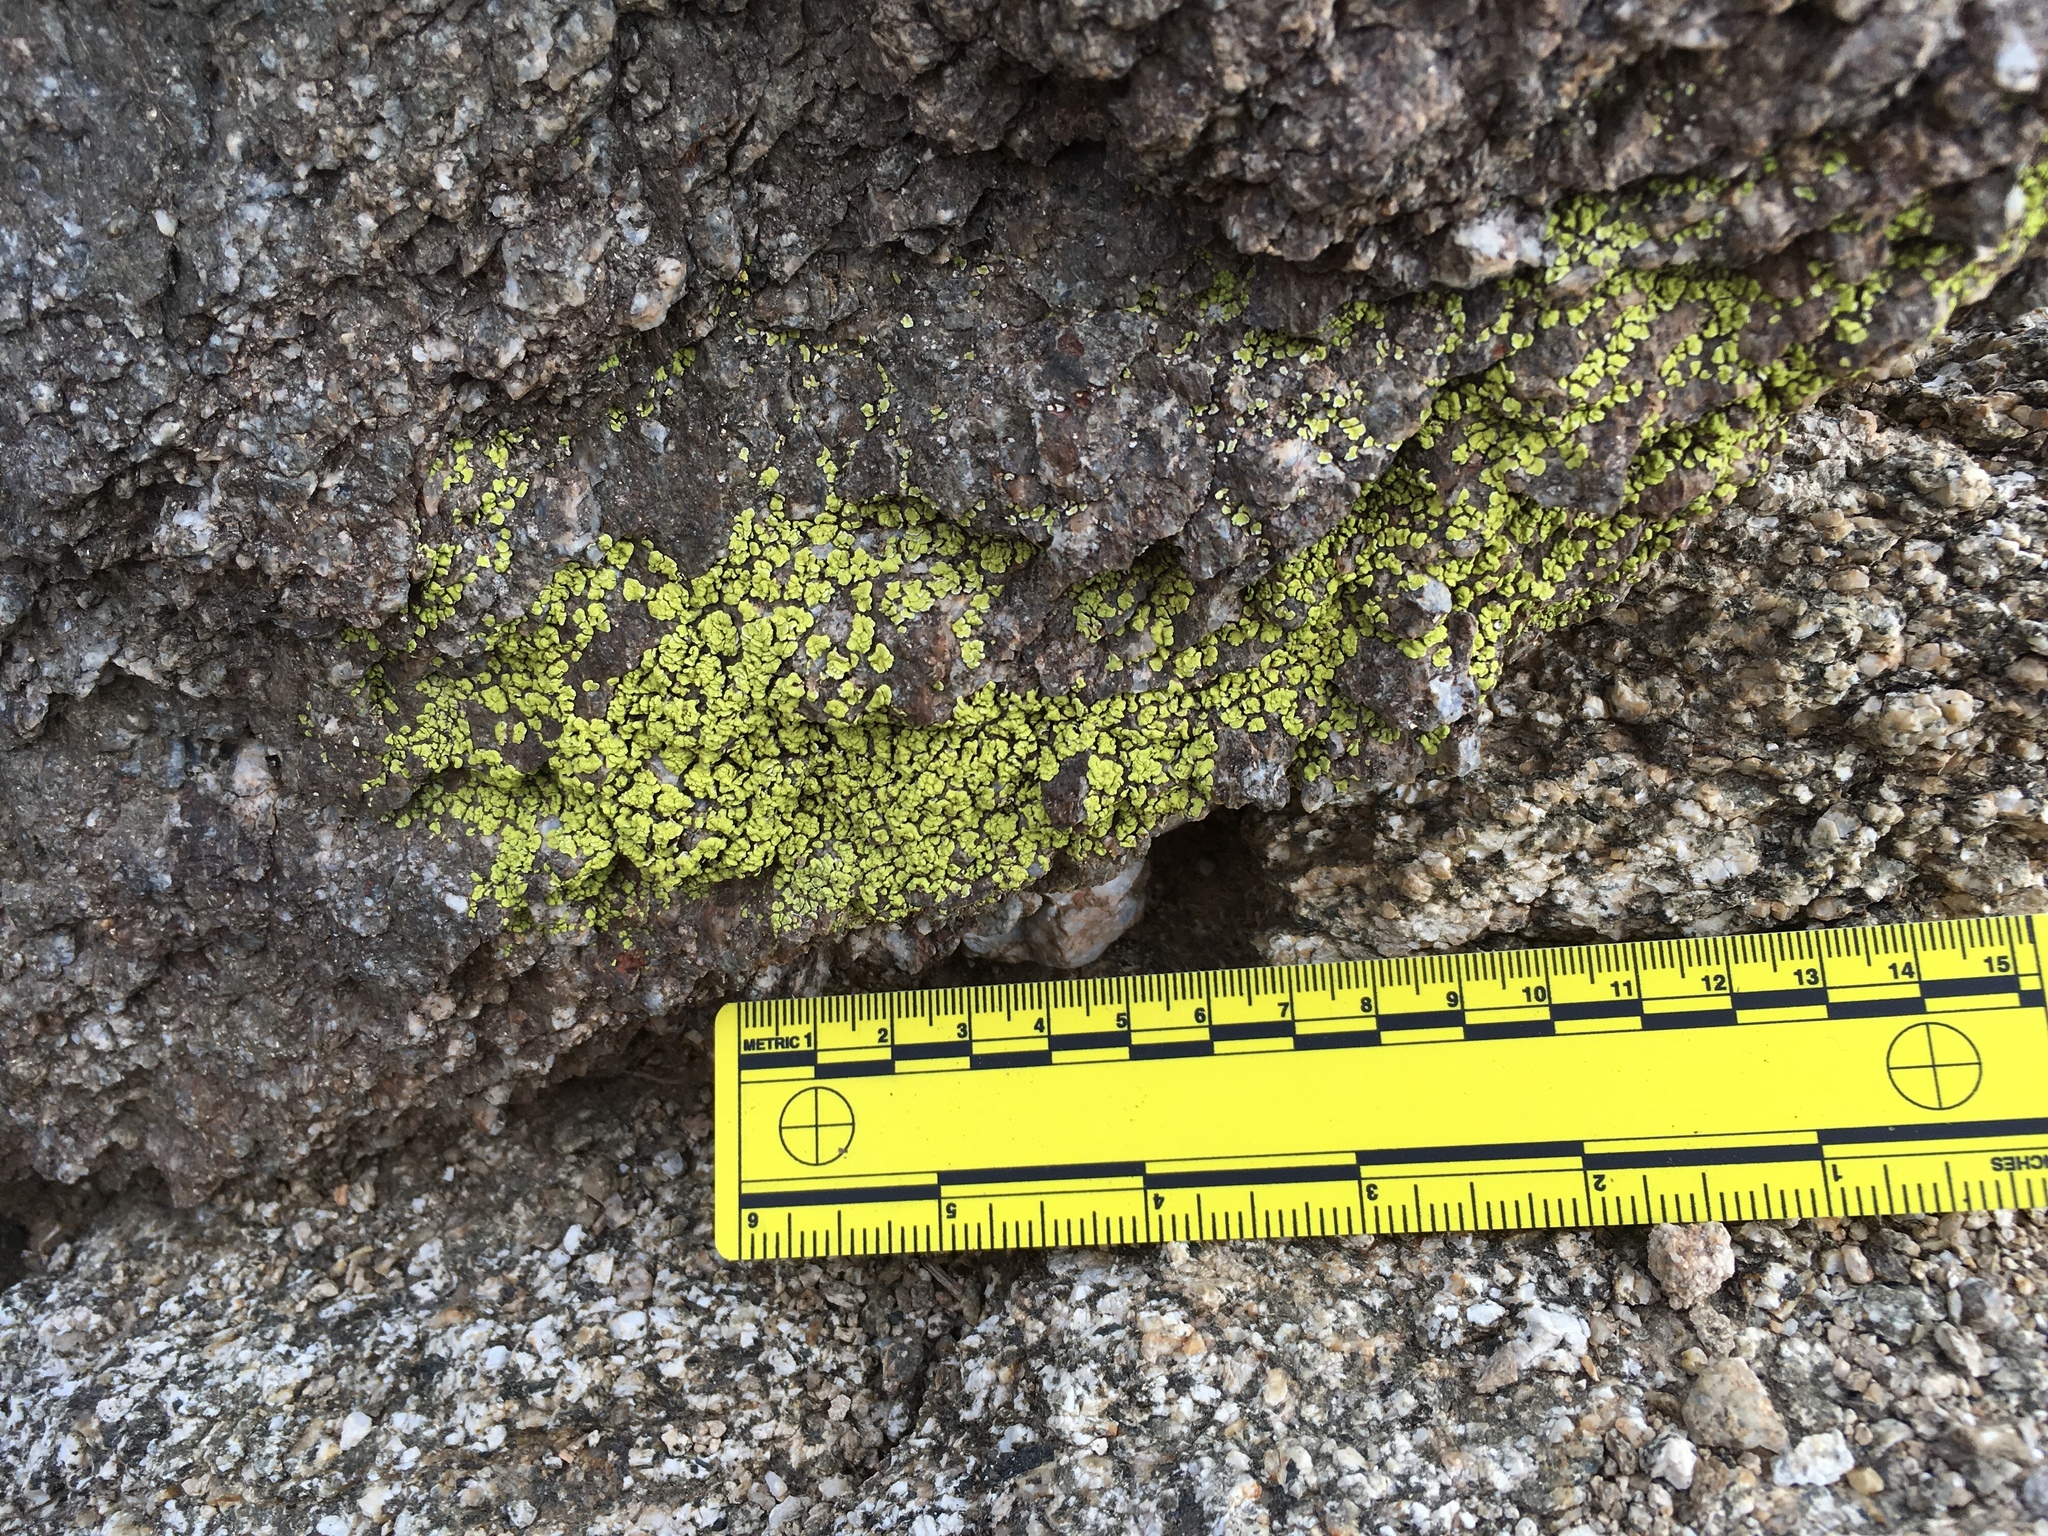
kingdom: Fungi
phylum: Ascomycota
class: Lecanoromycetes
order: Acarosporales
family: Acarosporaceae
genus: Acarospora
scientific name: Acarospora socialis
